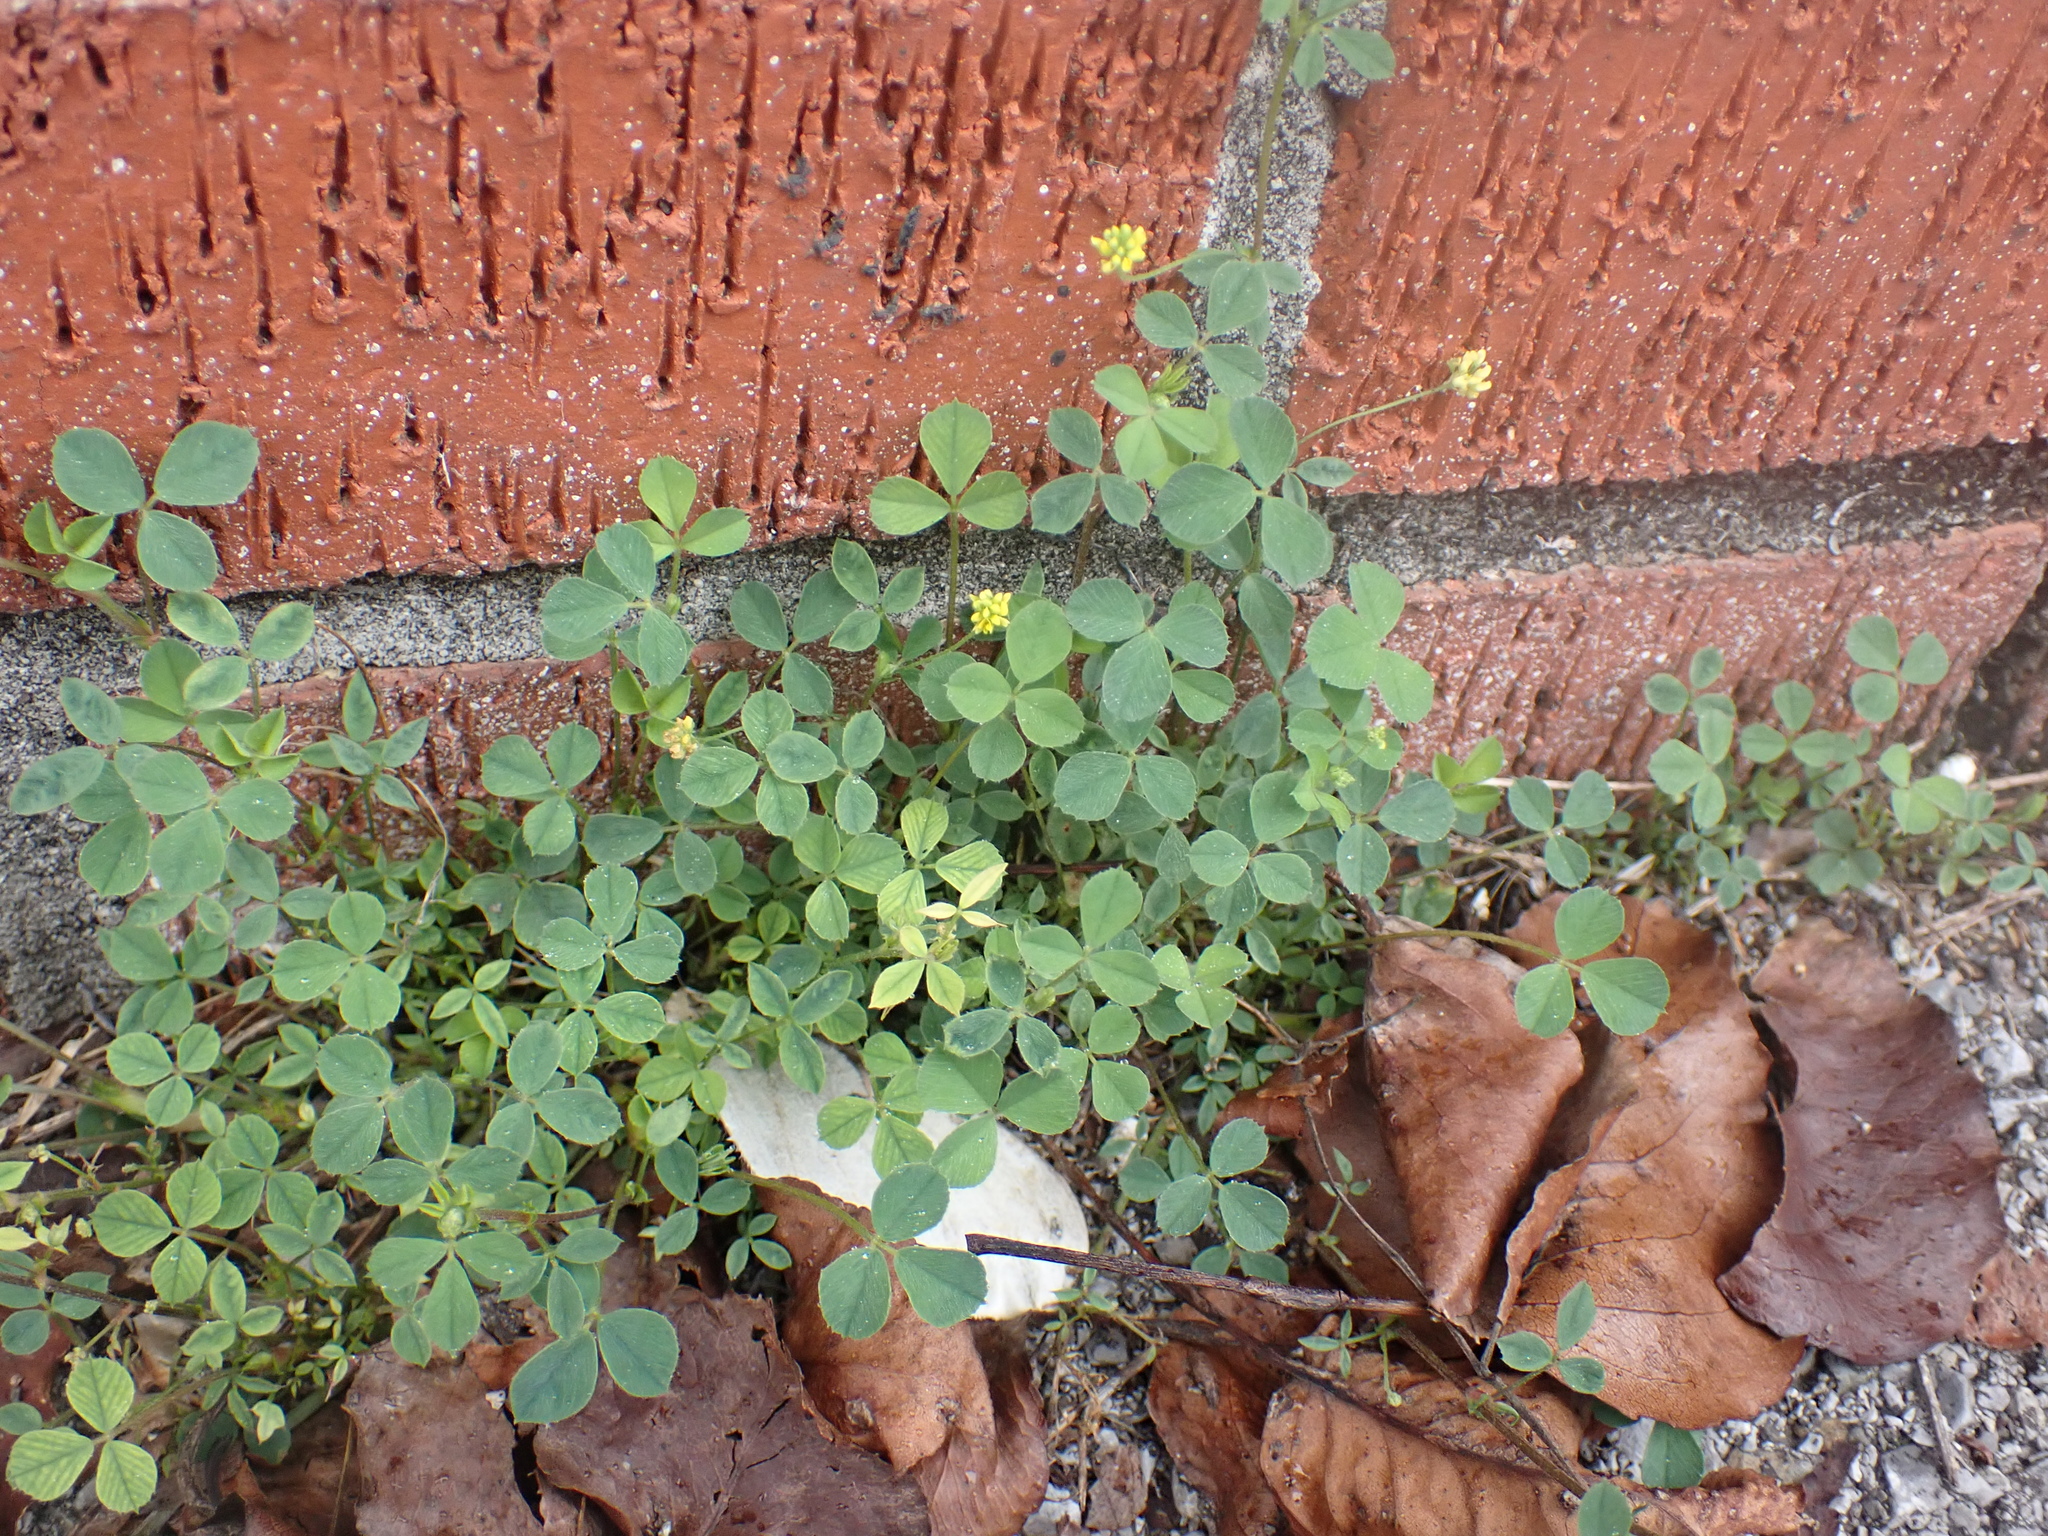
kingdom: Plantae
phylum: Tracheophyta
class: Magnoliopsida
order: Fabales
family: Fabaceae
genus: Medicago
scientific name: Medicago lupulina
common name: Black medick
